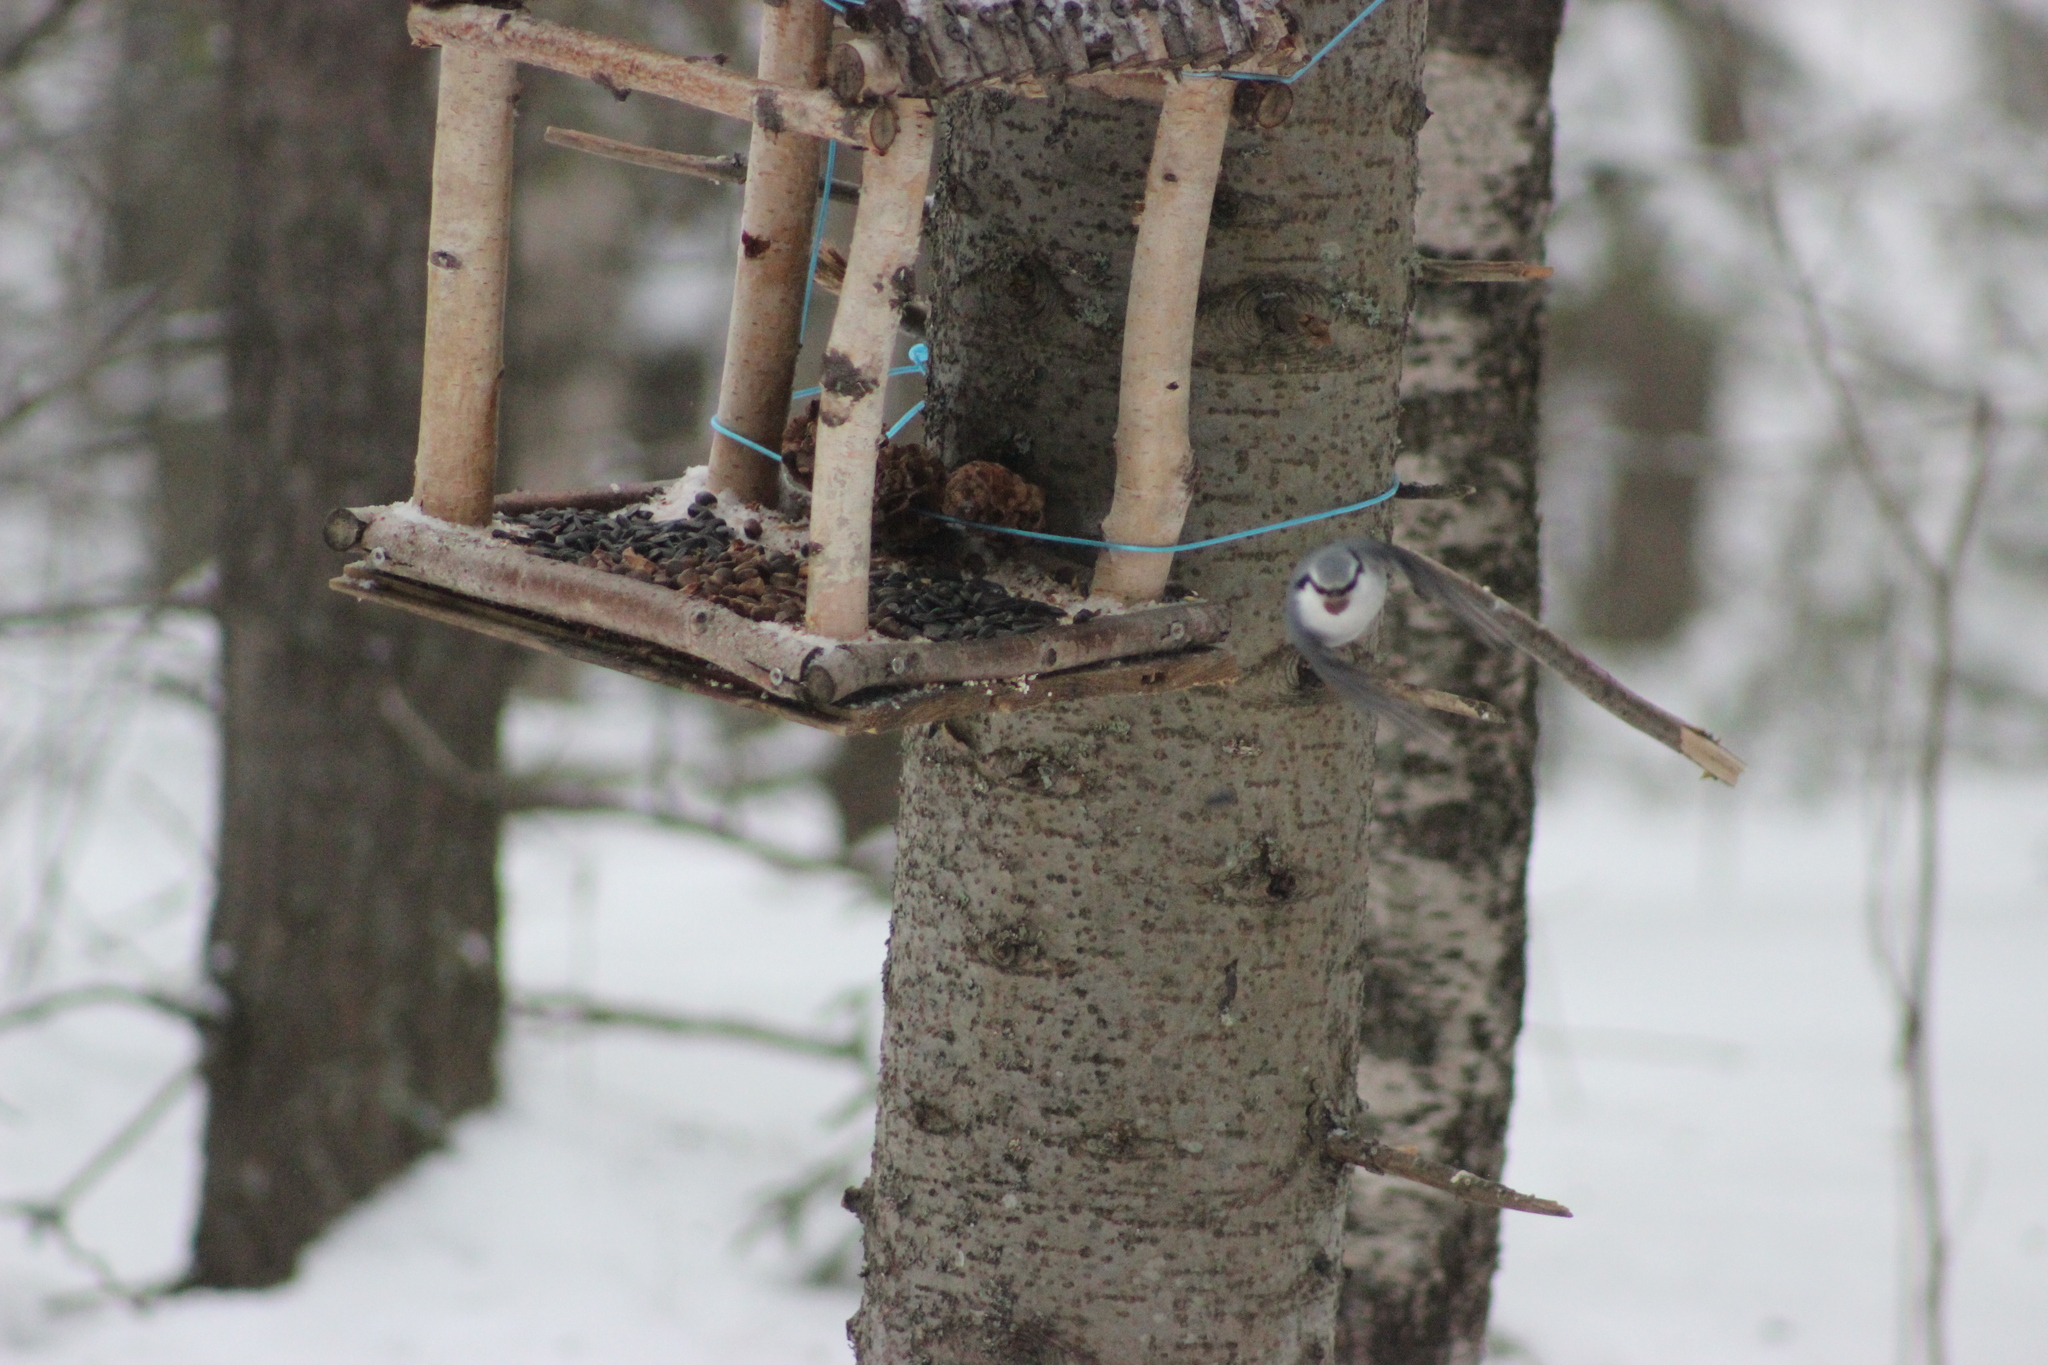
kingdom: Animalia
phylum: Chordata
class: Aves
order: Passeriformes
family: Sittidae
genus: Sitta
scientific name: Sitta europaea
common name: Eurasian nuthatch
